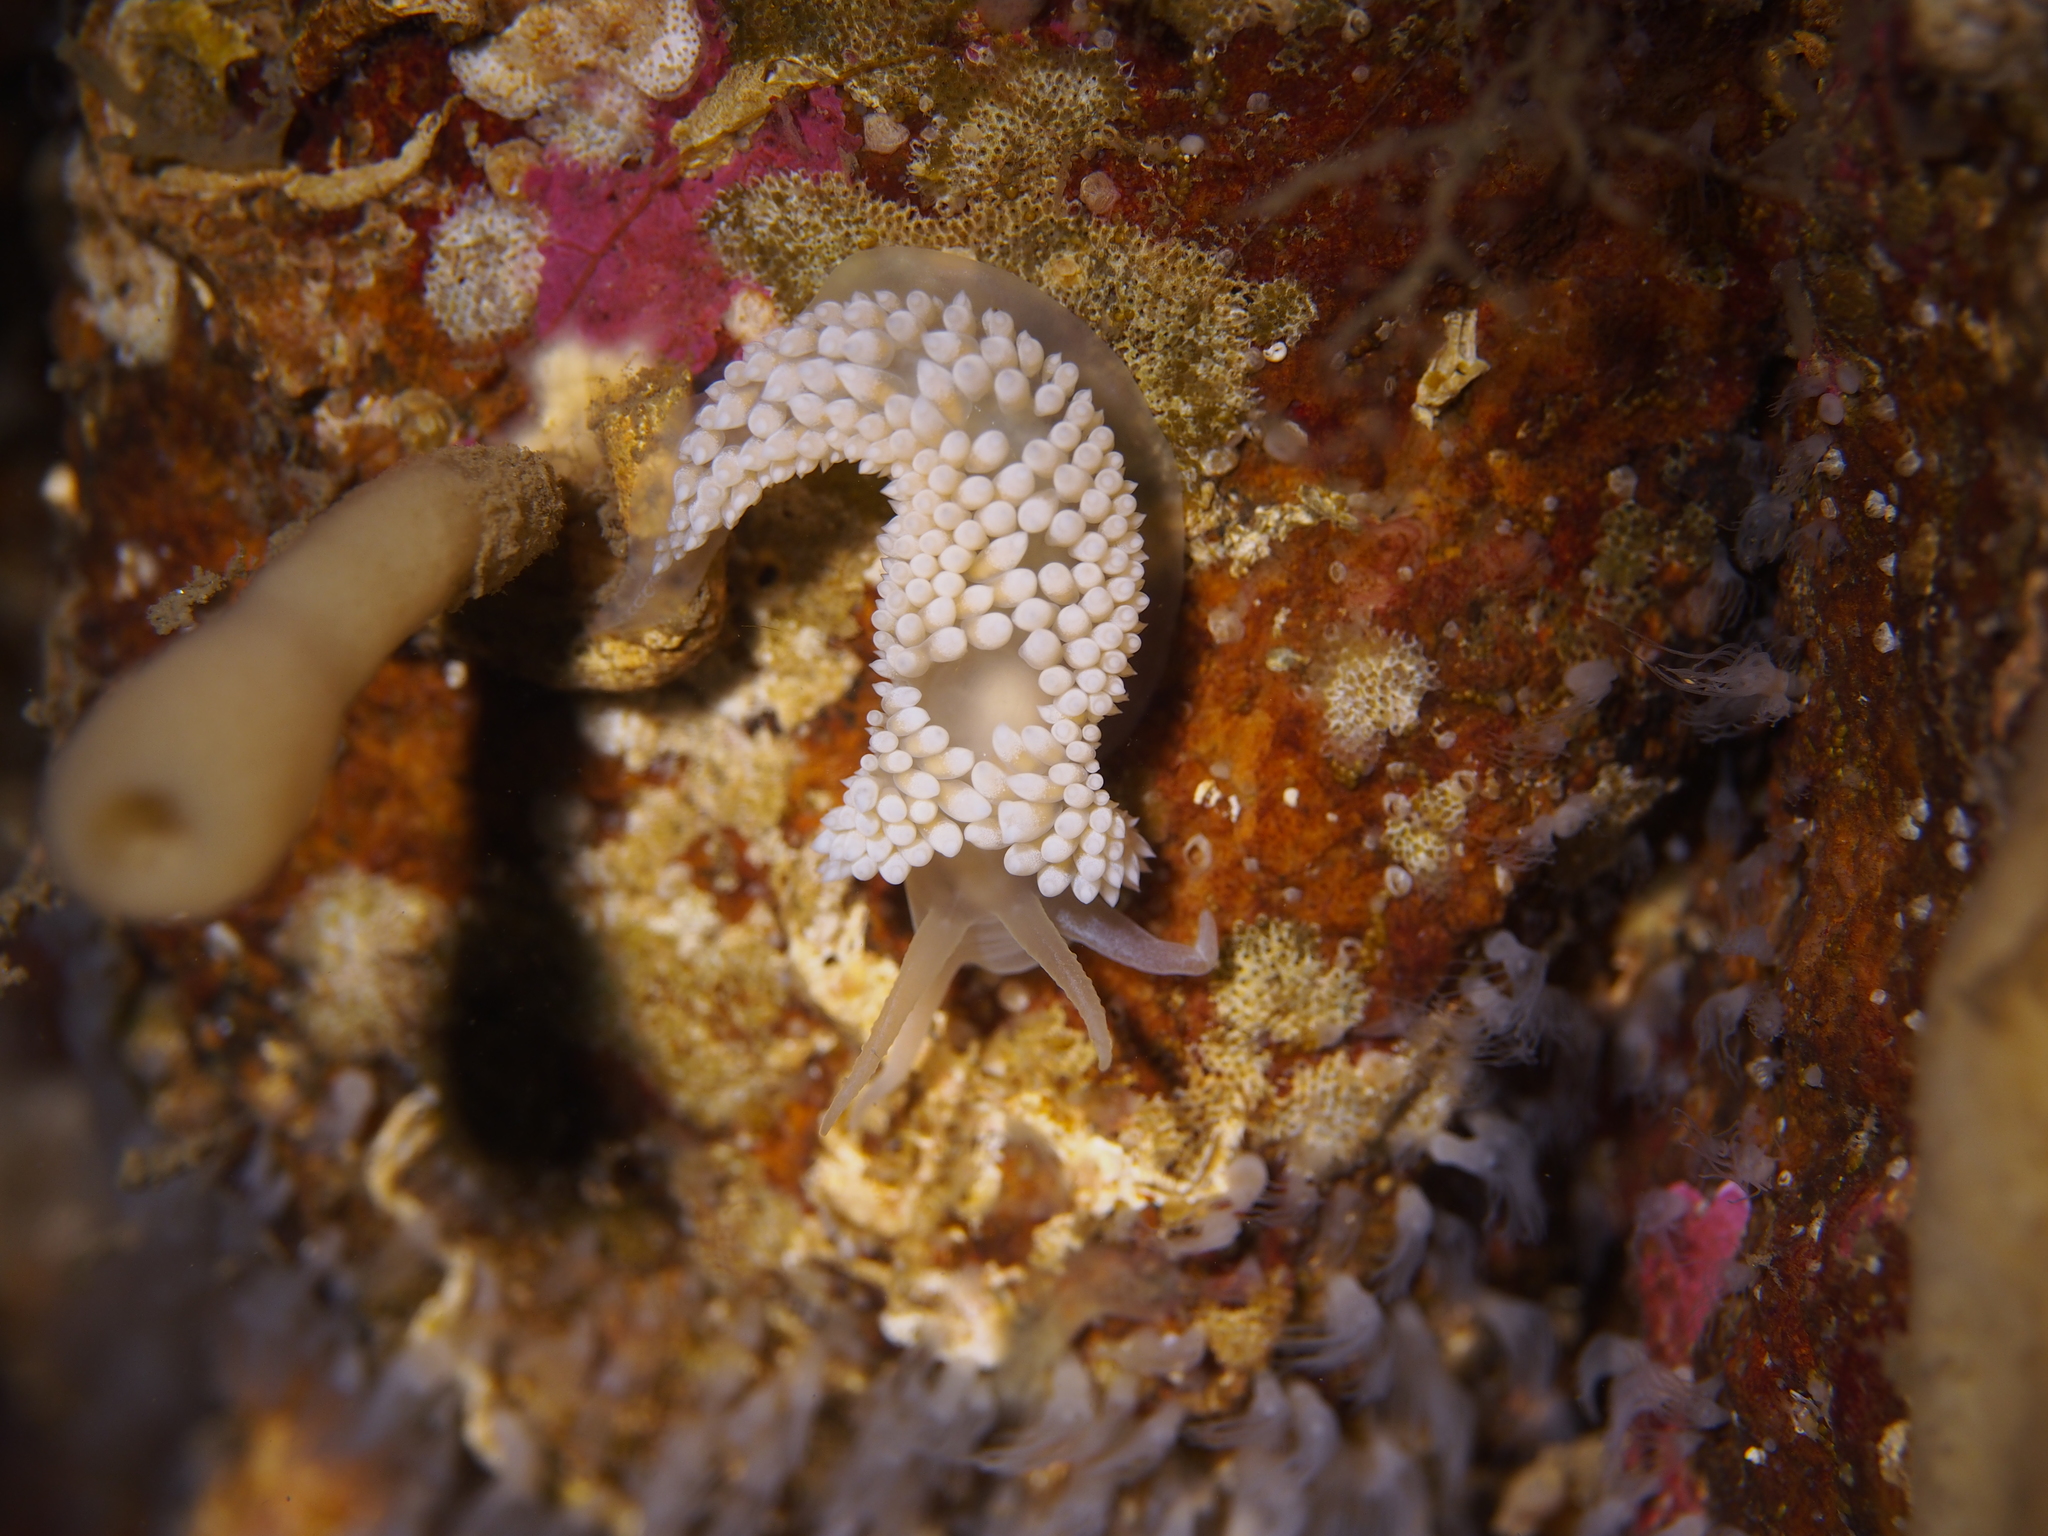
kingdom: Animalia
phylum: Mollusca
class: Gastropoda
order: Nudibranchia
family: Coryphellidae
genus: Coryphella
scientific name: Coryphella verrucosa
